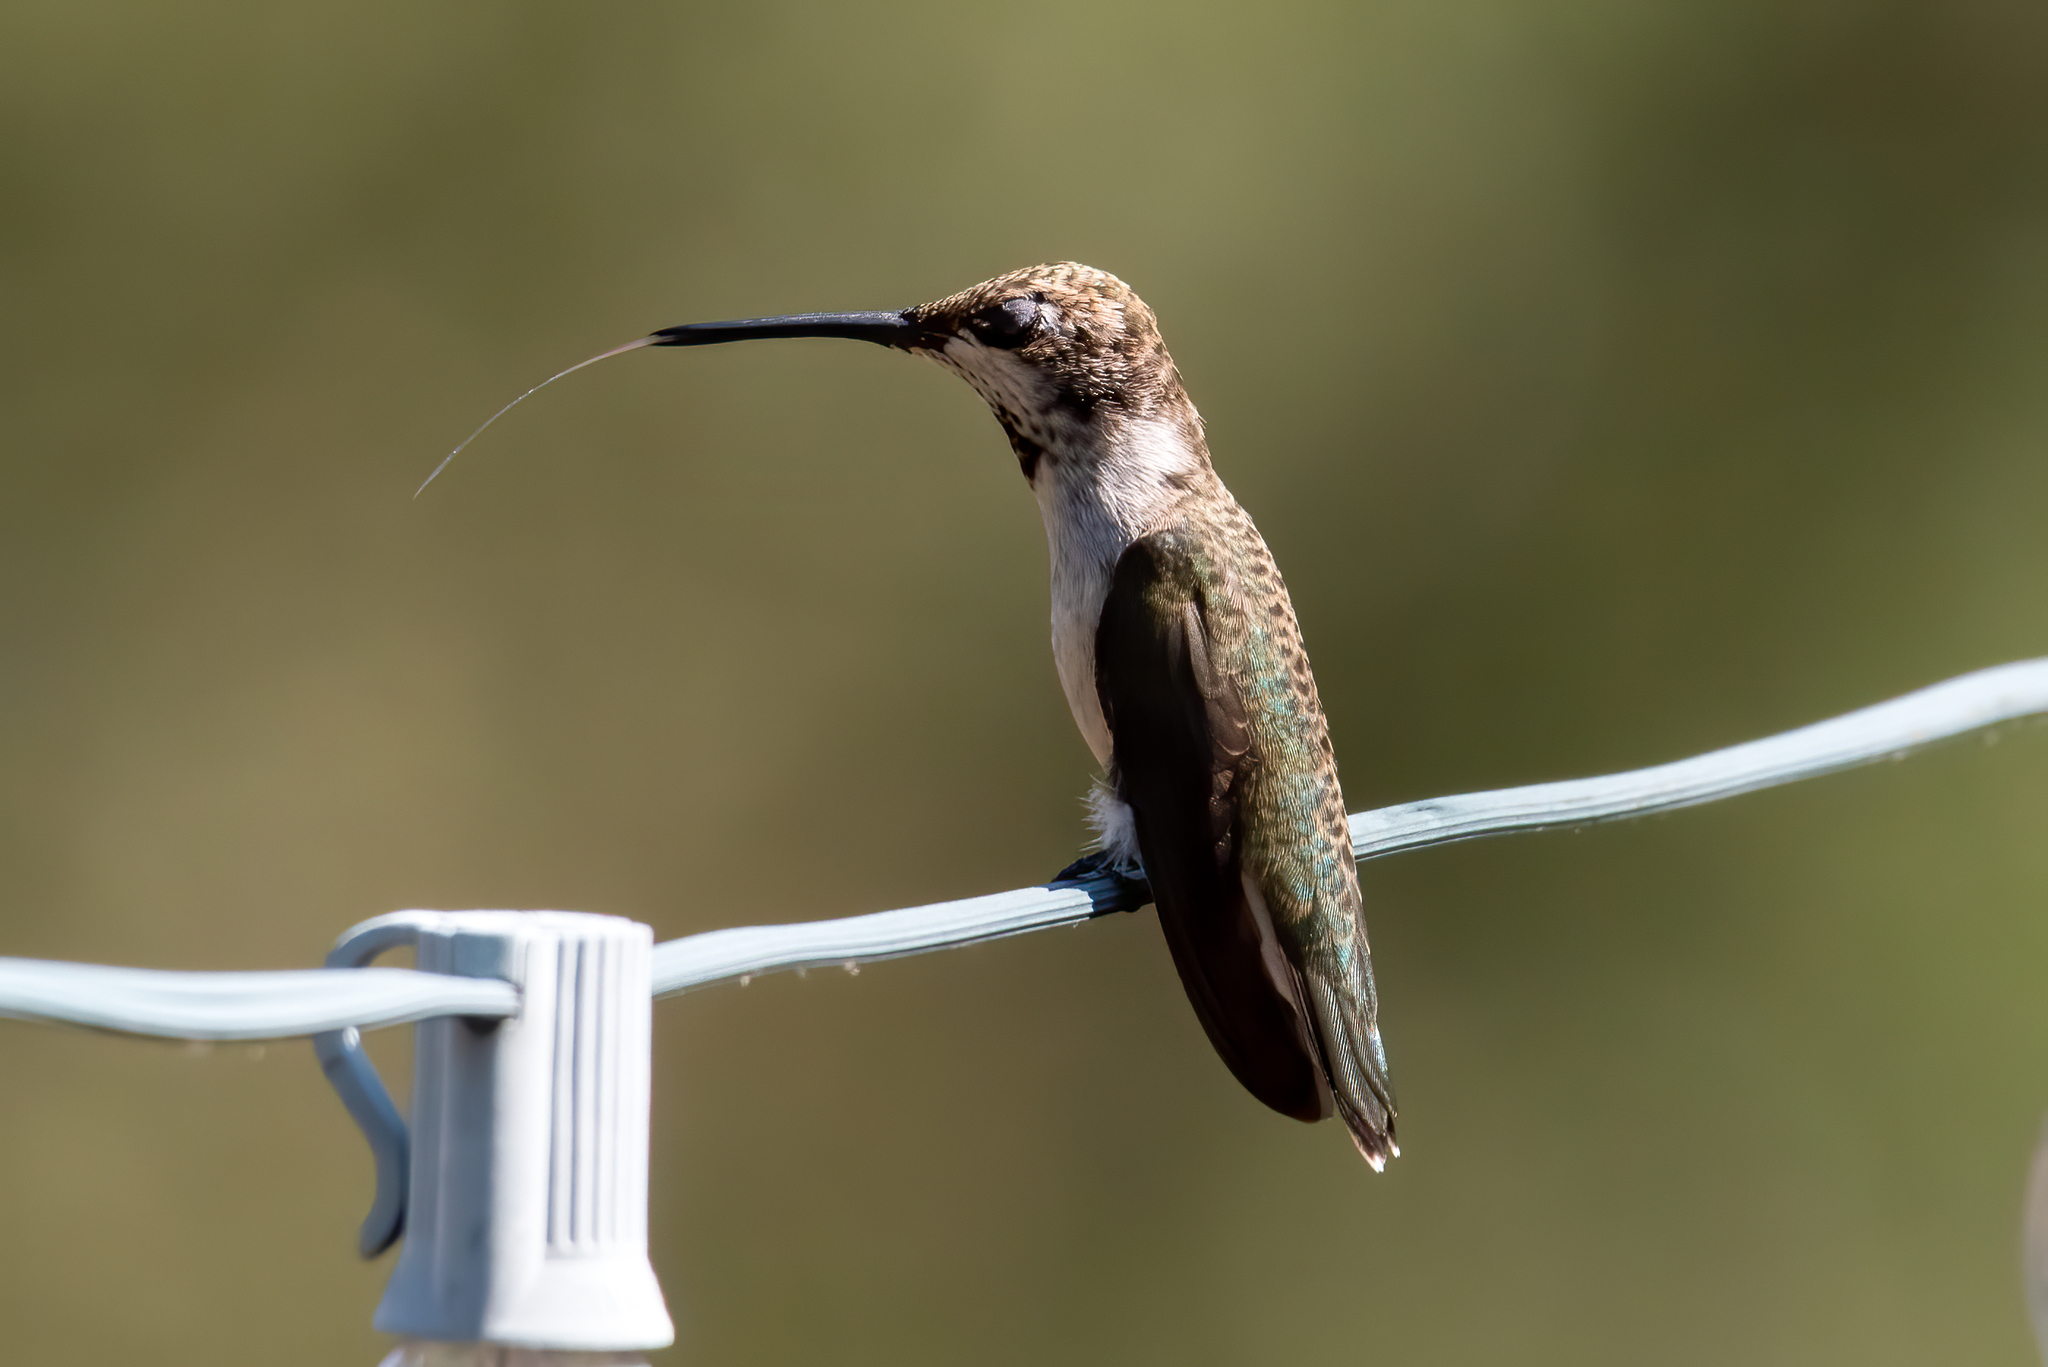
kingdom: Animalia
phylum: Chordata
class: Aves
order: Apodiformes
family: Trochilidae
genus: Archilochus
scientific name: Archilochus alexandri
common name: Black-chinned hummingbird
